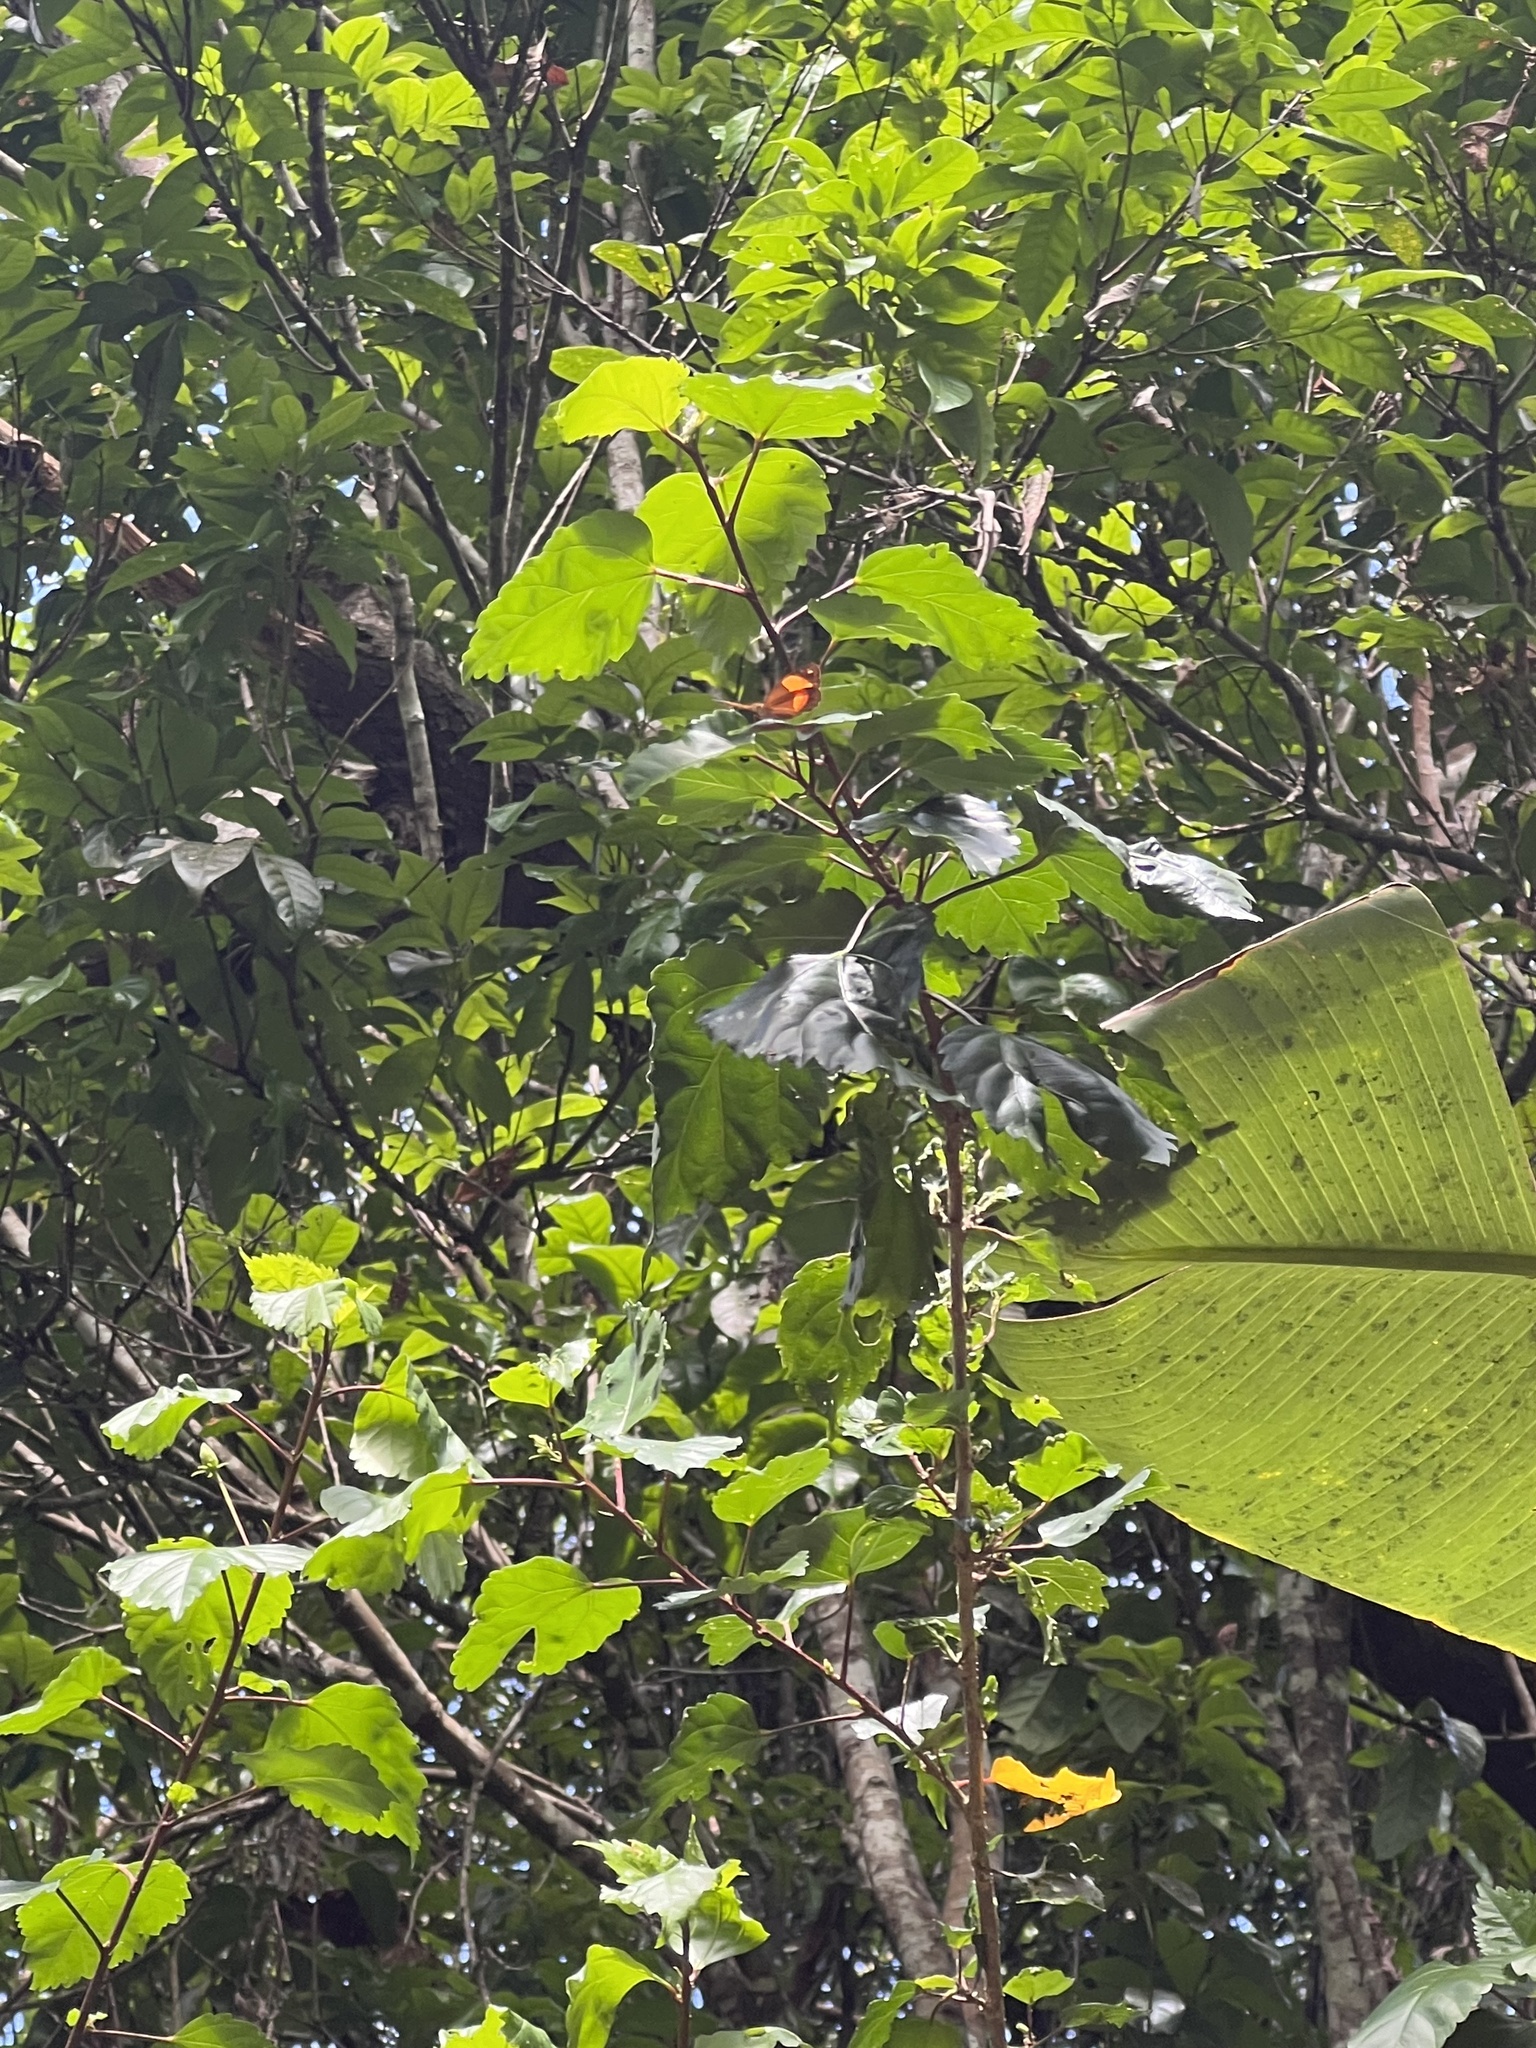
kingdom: Animalia
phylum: Arthropoda
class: Insecta
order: Lepidoptera
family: Nymphalidae
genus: Cupha
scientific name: Cupha prosope
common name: Bordered rustic
